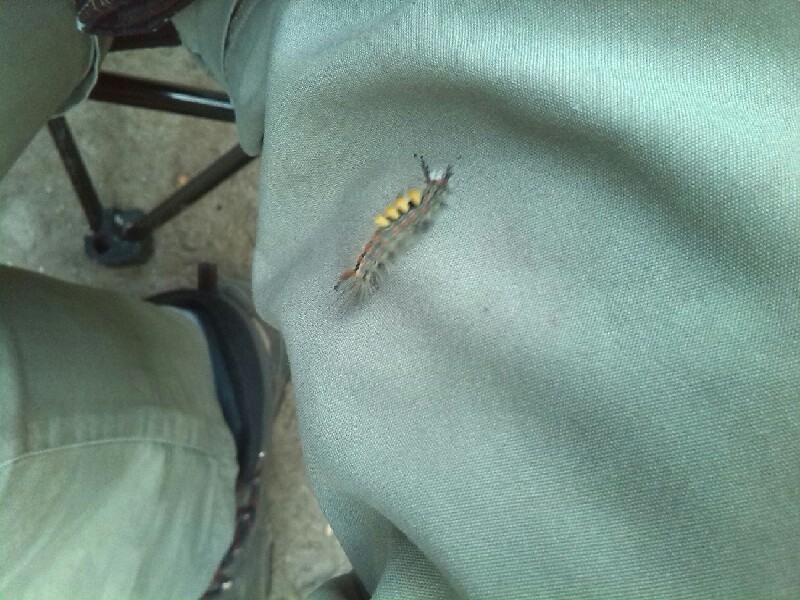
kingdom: Animalia
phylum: Arthropoda
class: Insecta
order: Lepidoptera
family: Erebidae
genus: Orgyia
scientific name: Orgyia antiqua
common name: Vapourer
